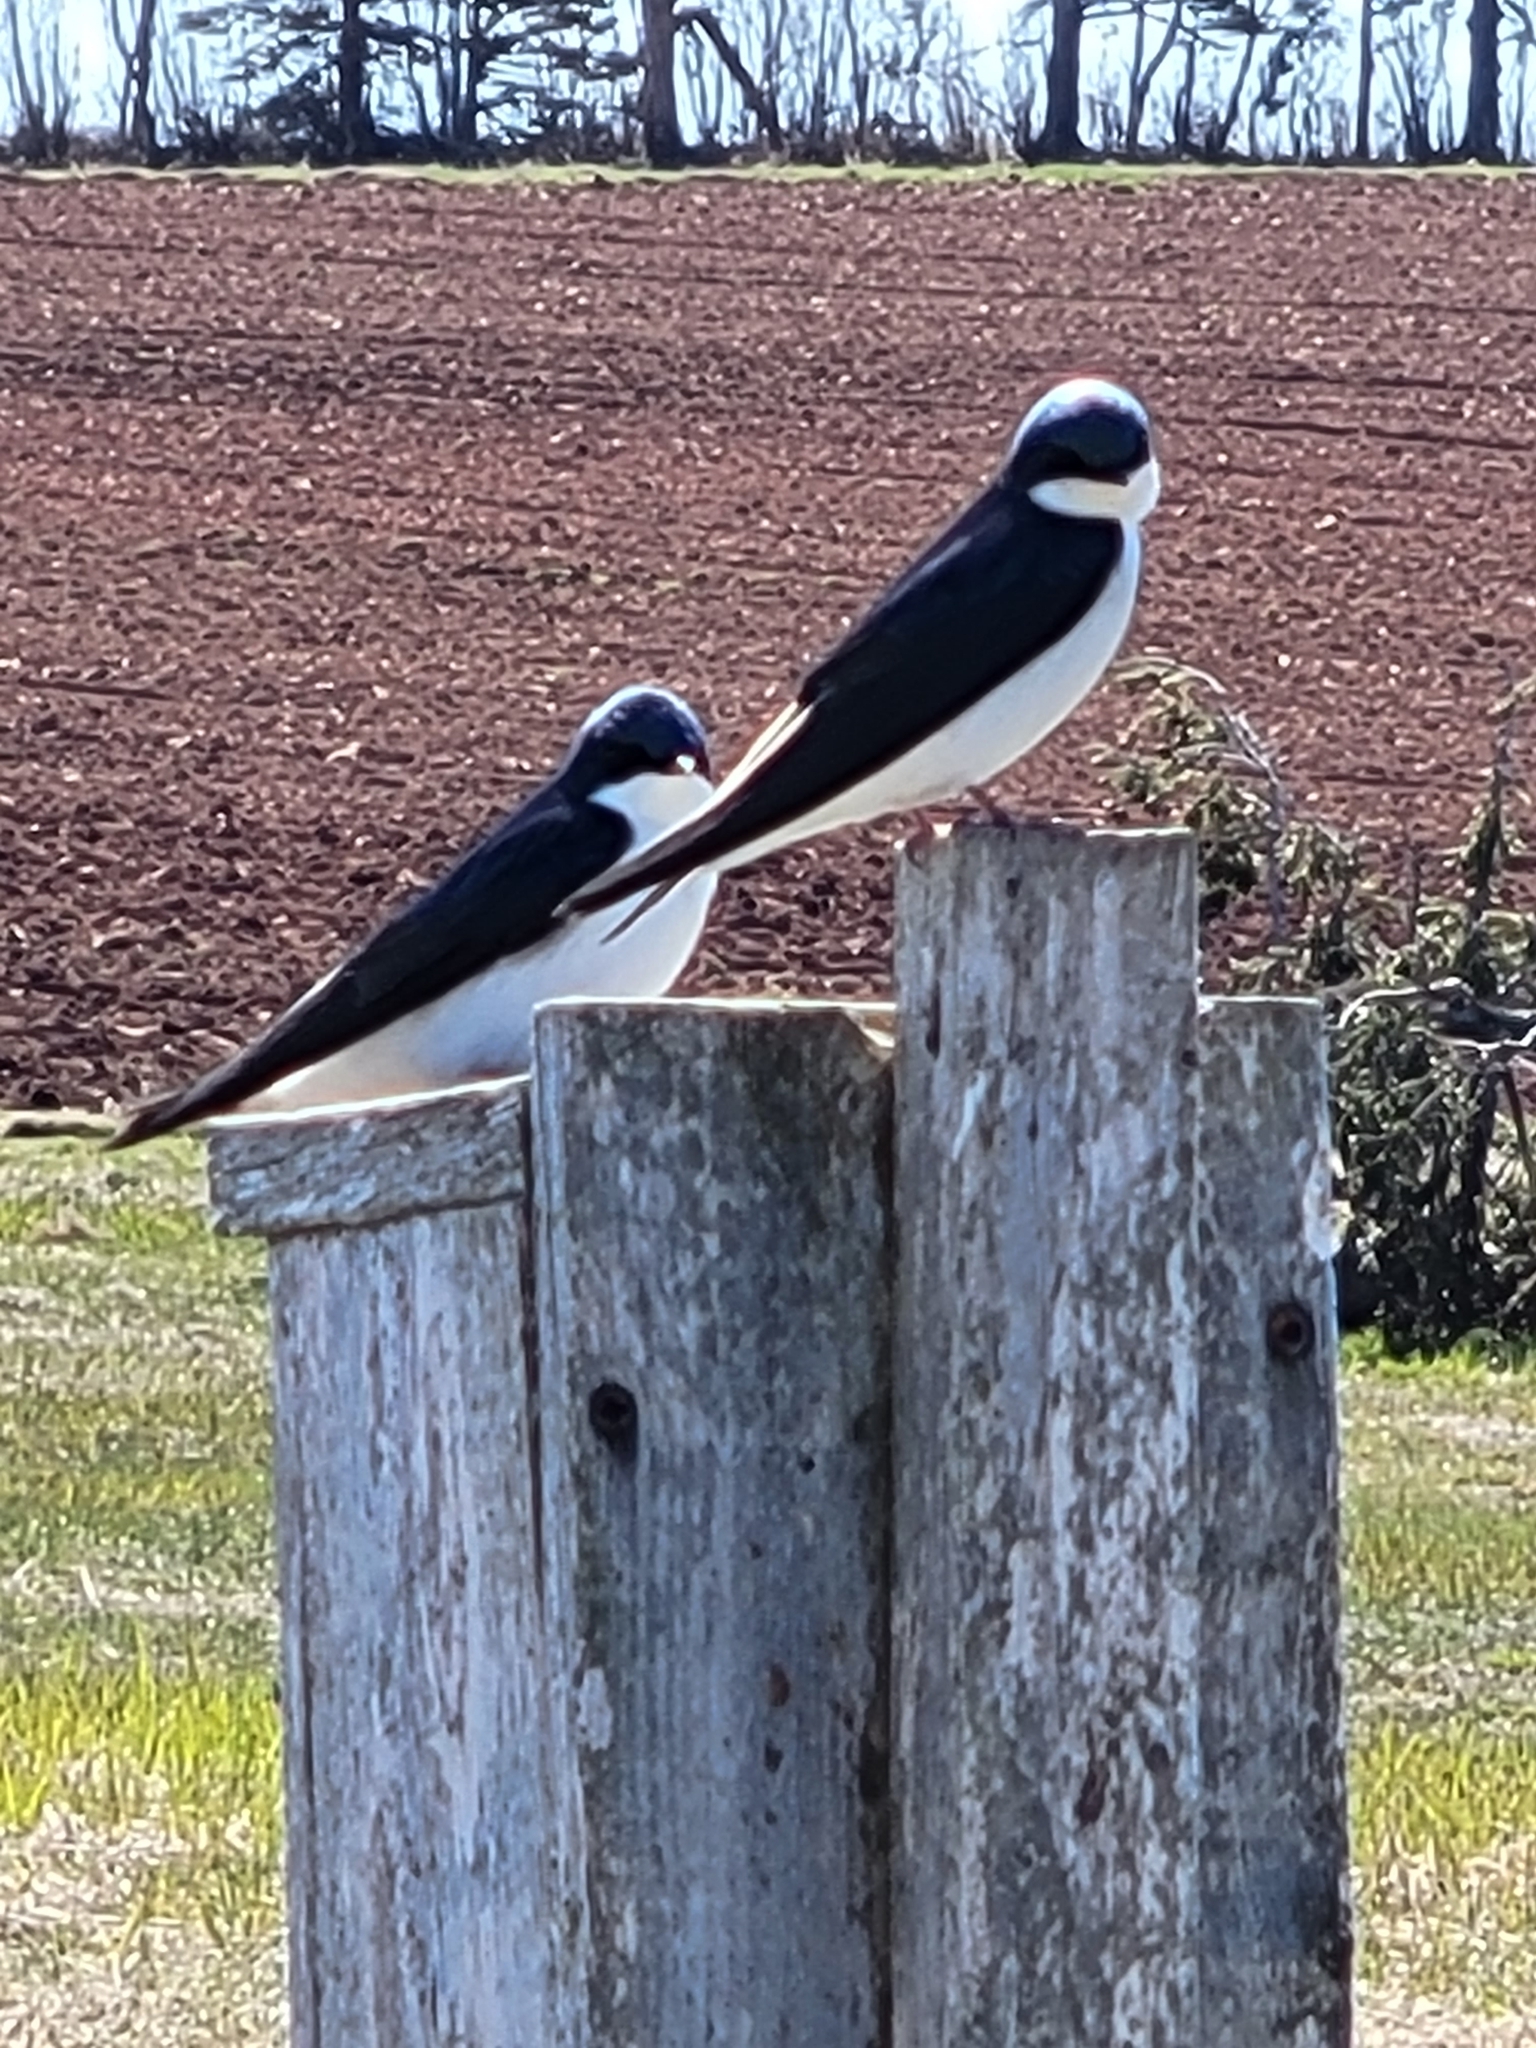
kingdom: Animalia
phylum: Chordata
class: Aves
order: Passeriformes
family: Hirundinidae
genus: Tachycineta
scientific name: Tachycineta bicolor
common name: Tree swallow
